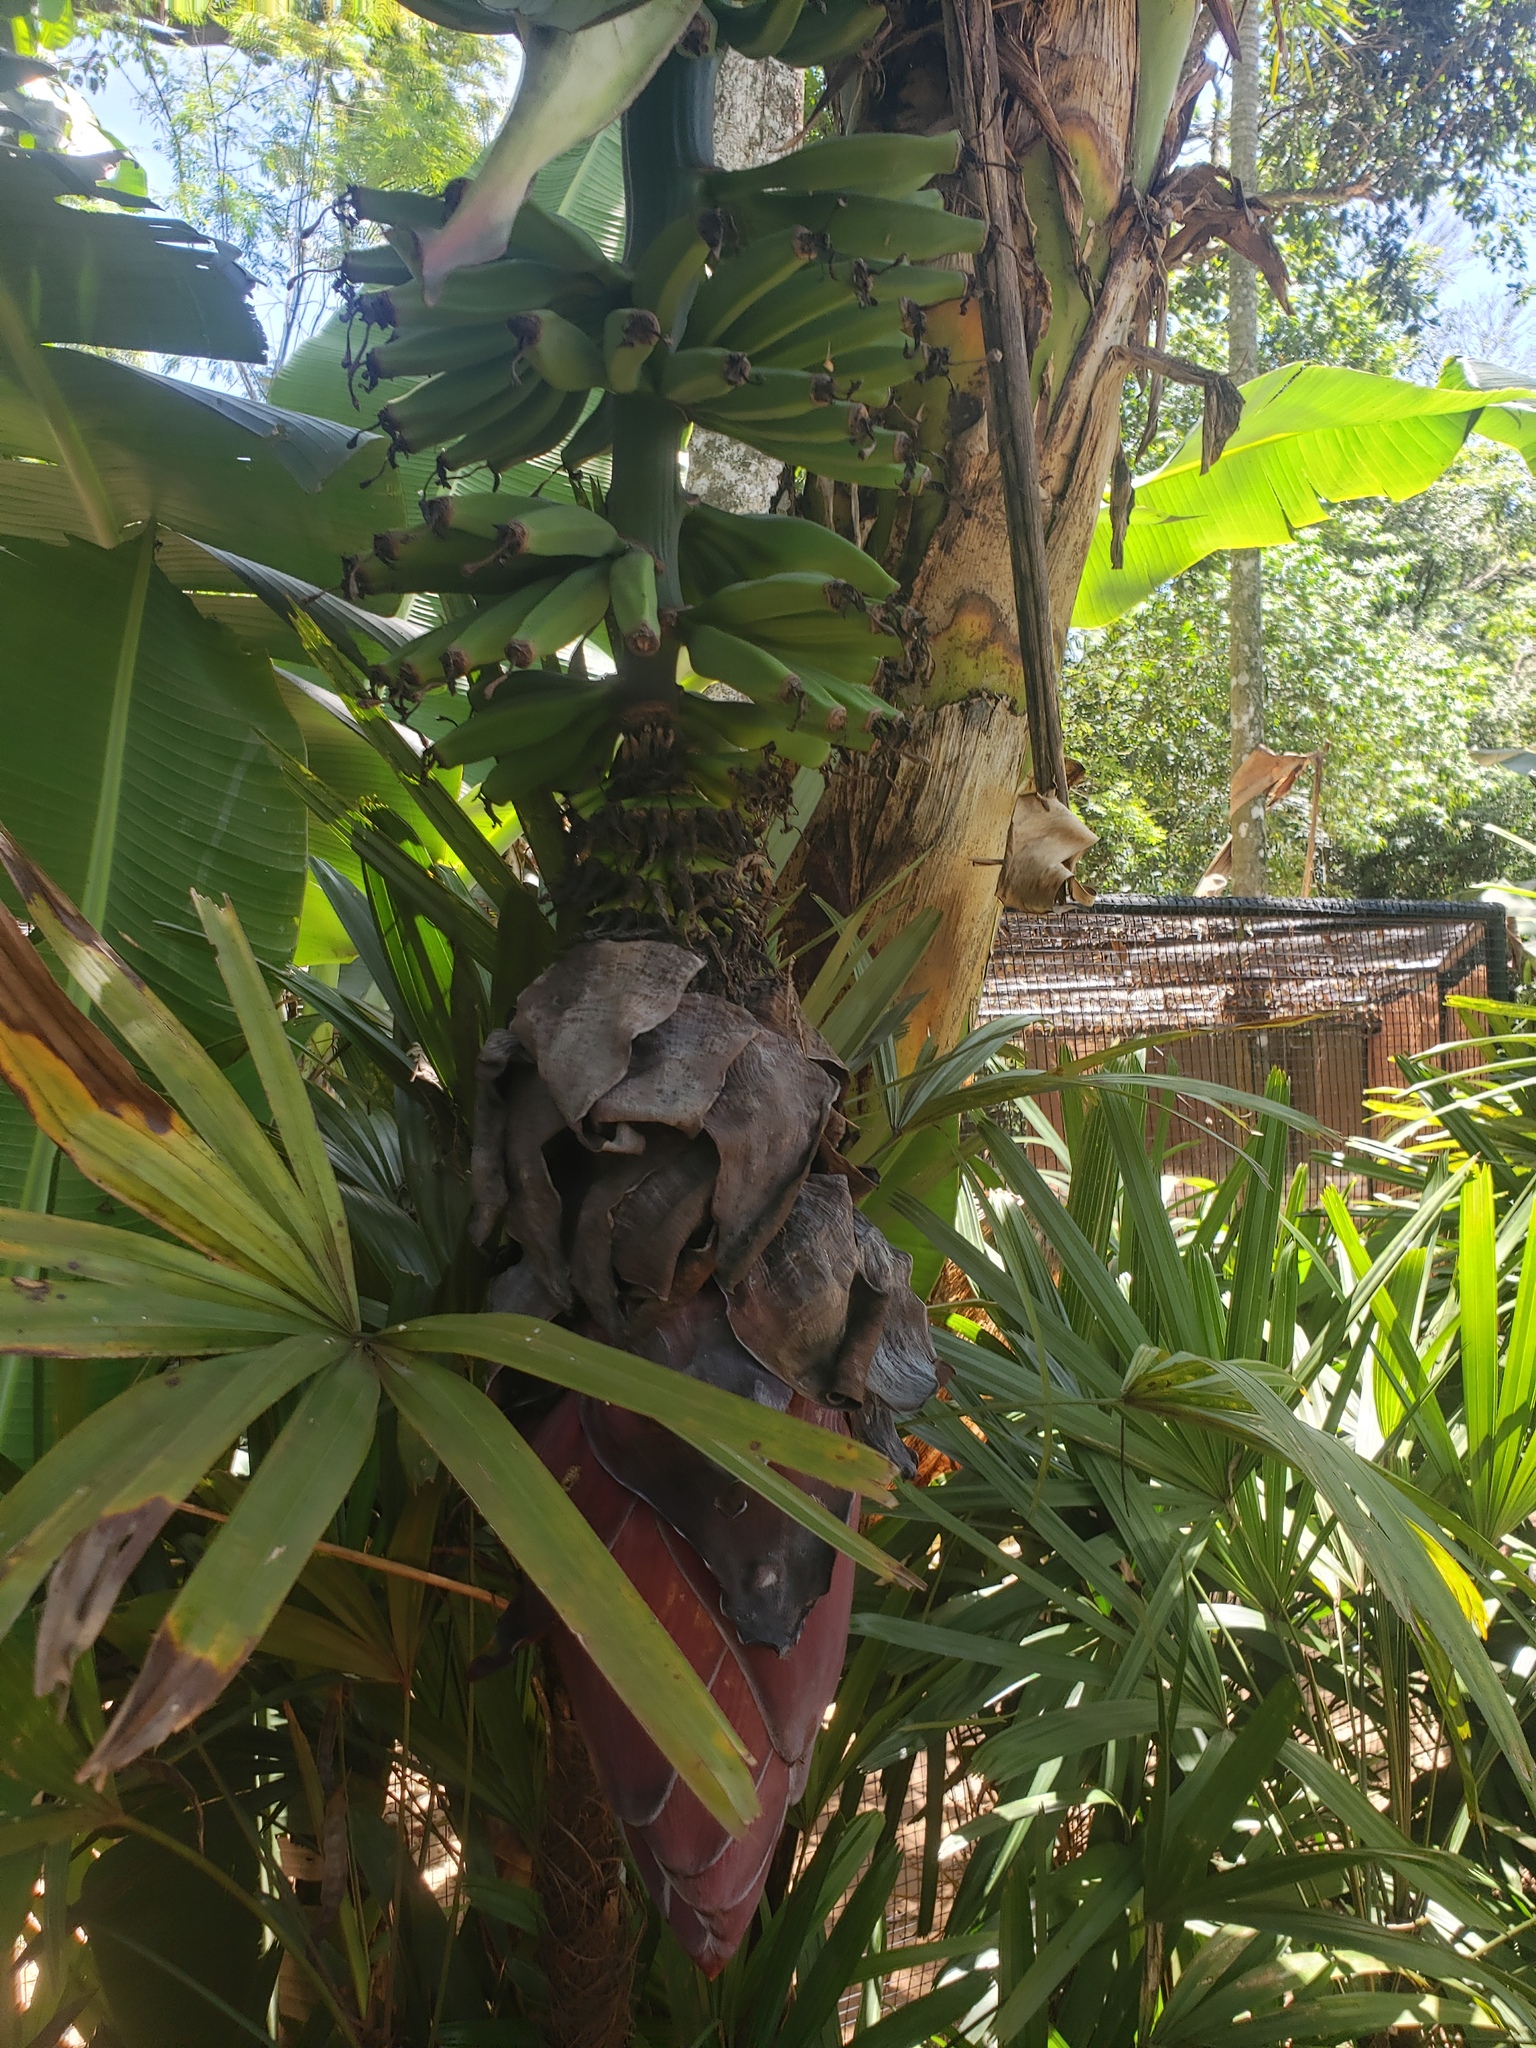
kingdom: Plantae
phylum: Tracheophyta
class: Liliopsida
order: Zingiberales
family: Musaceae
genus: Musa
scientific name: Musa acuminata
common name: Edible banana
